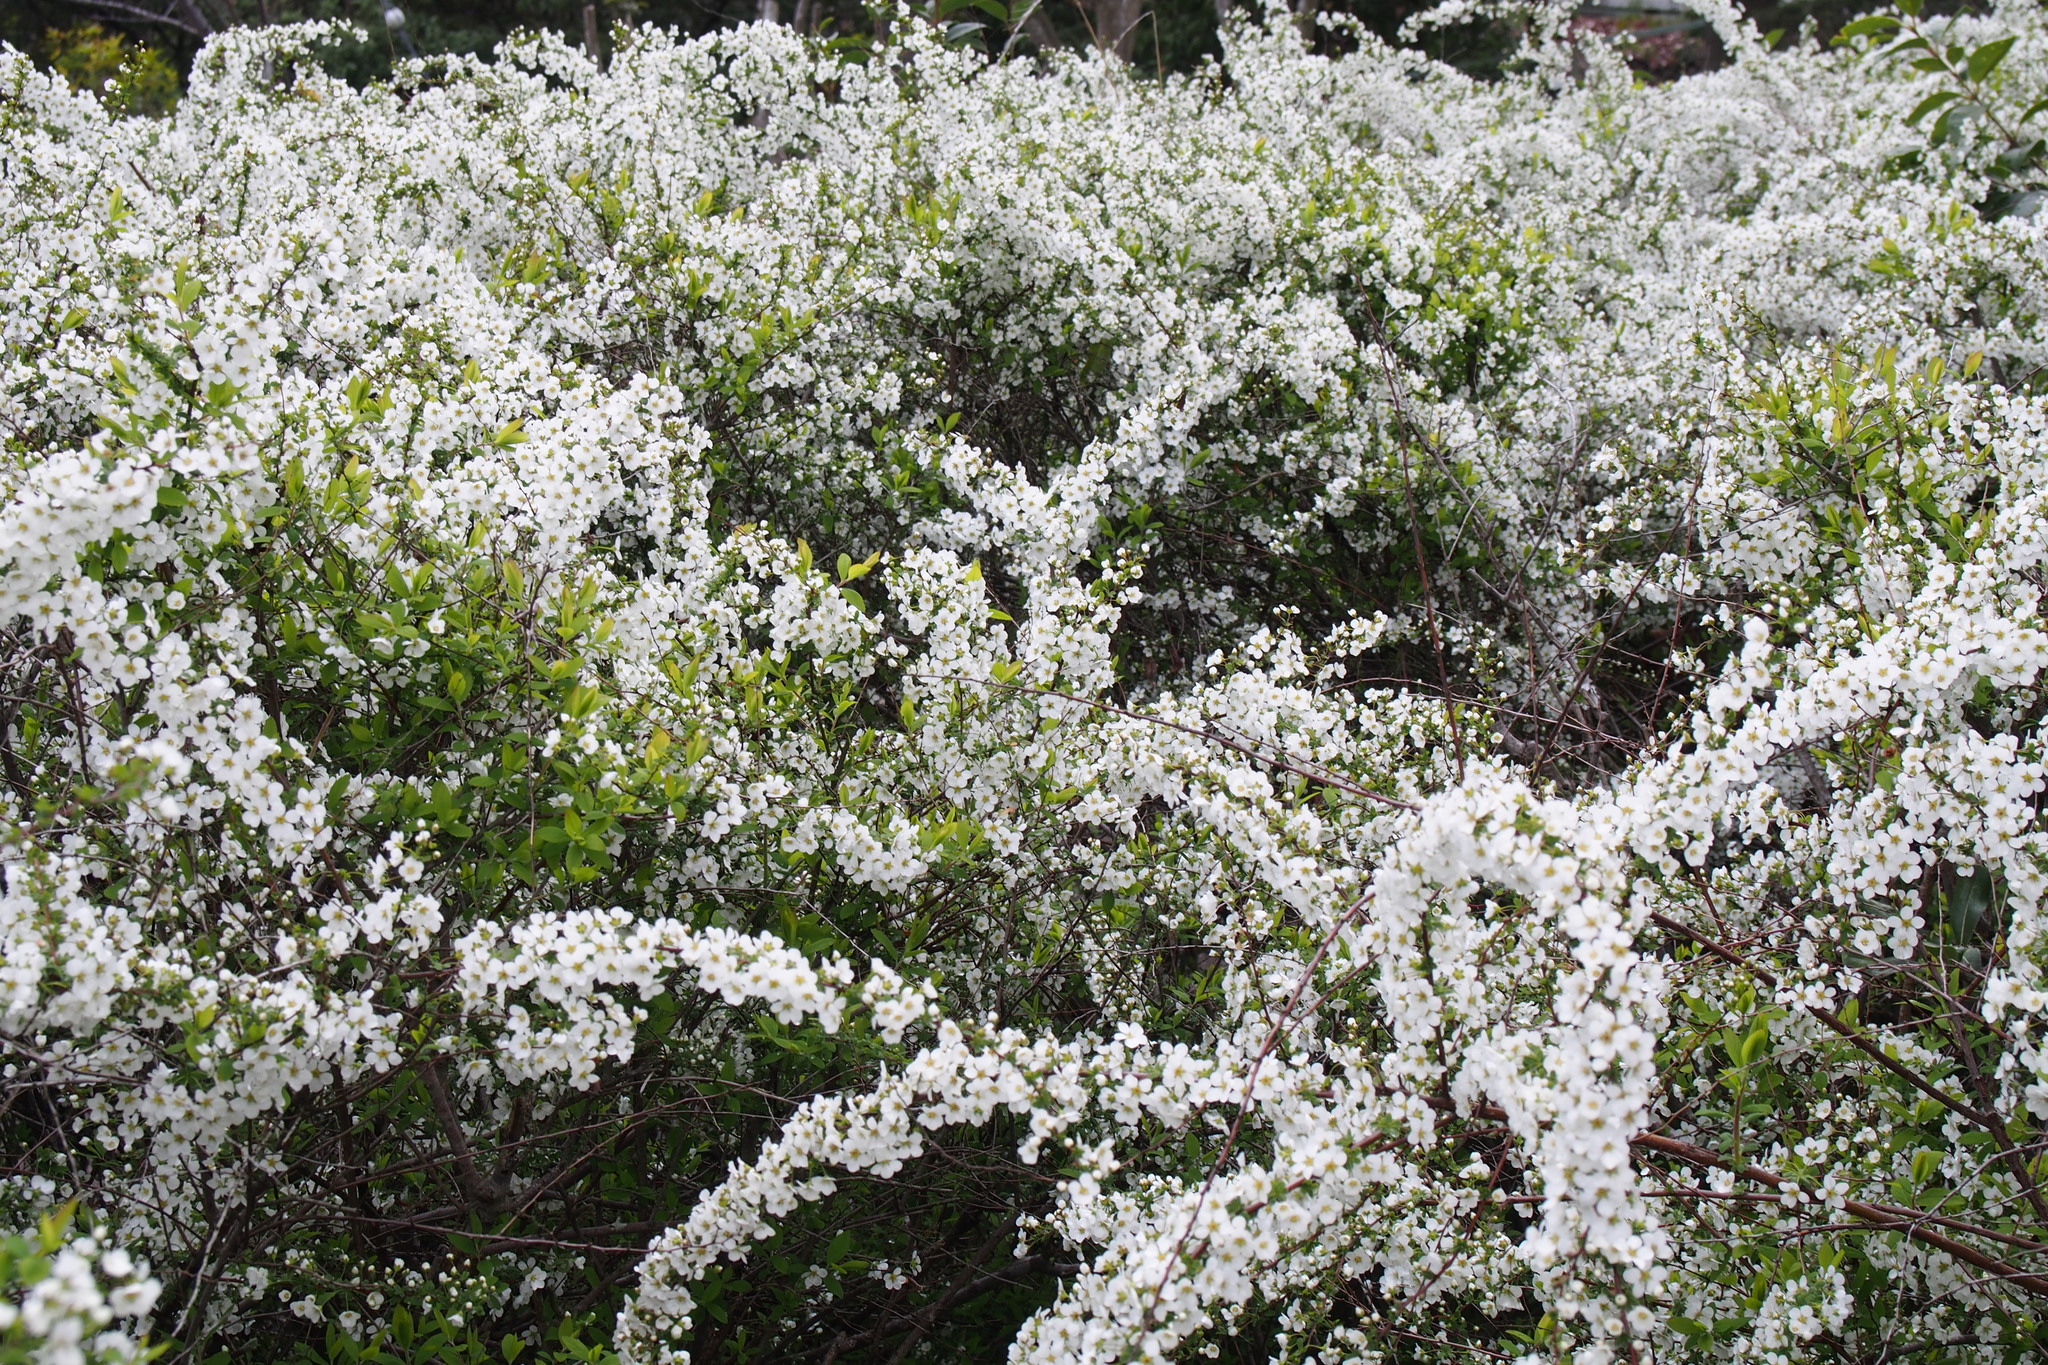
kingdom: Plantae
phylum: Tracheophyta
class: Magnoliopsida
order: Rosales
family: Rosaceae
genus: Spiraea
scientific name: Spiraea thunbergii
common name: Thunberg's meadowsweet
